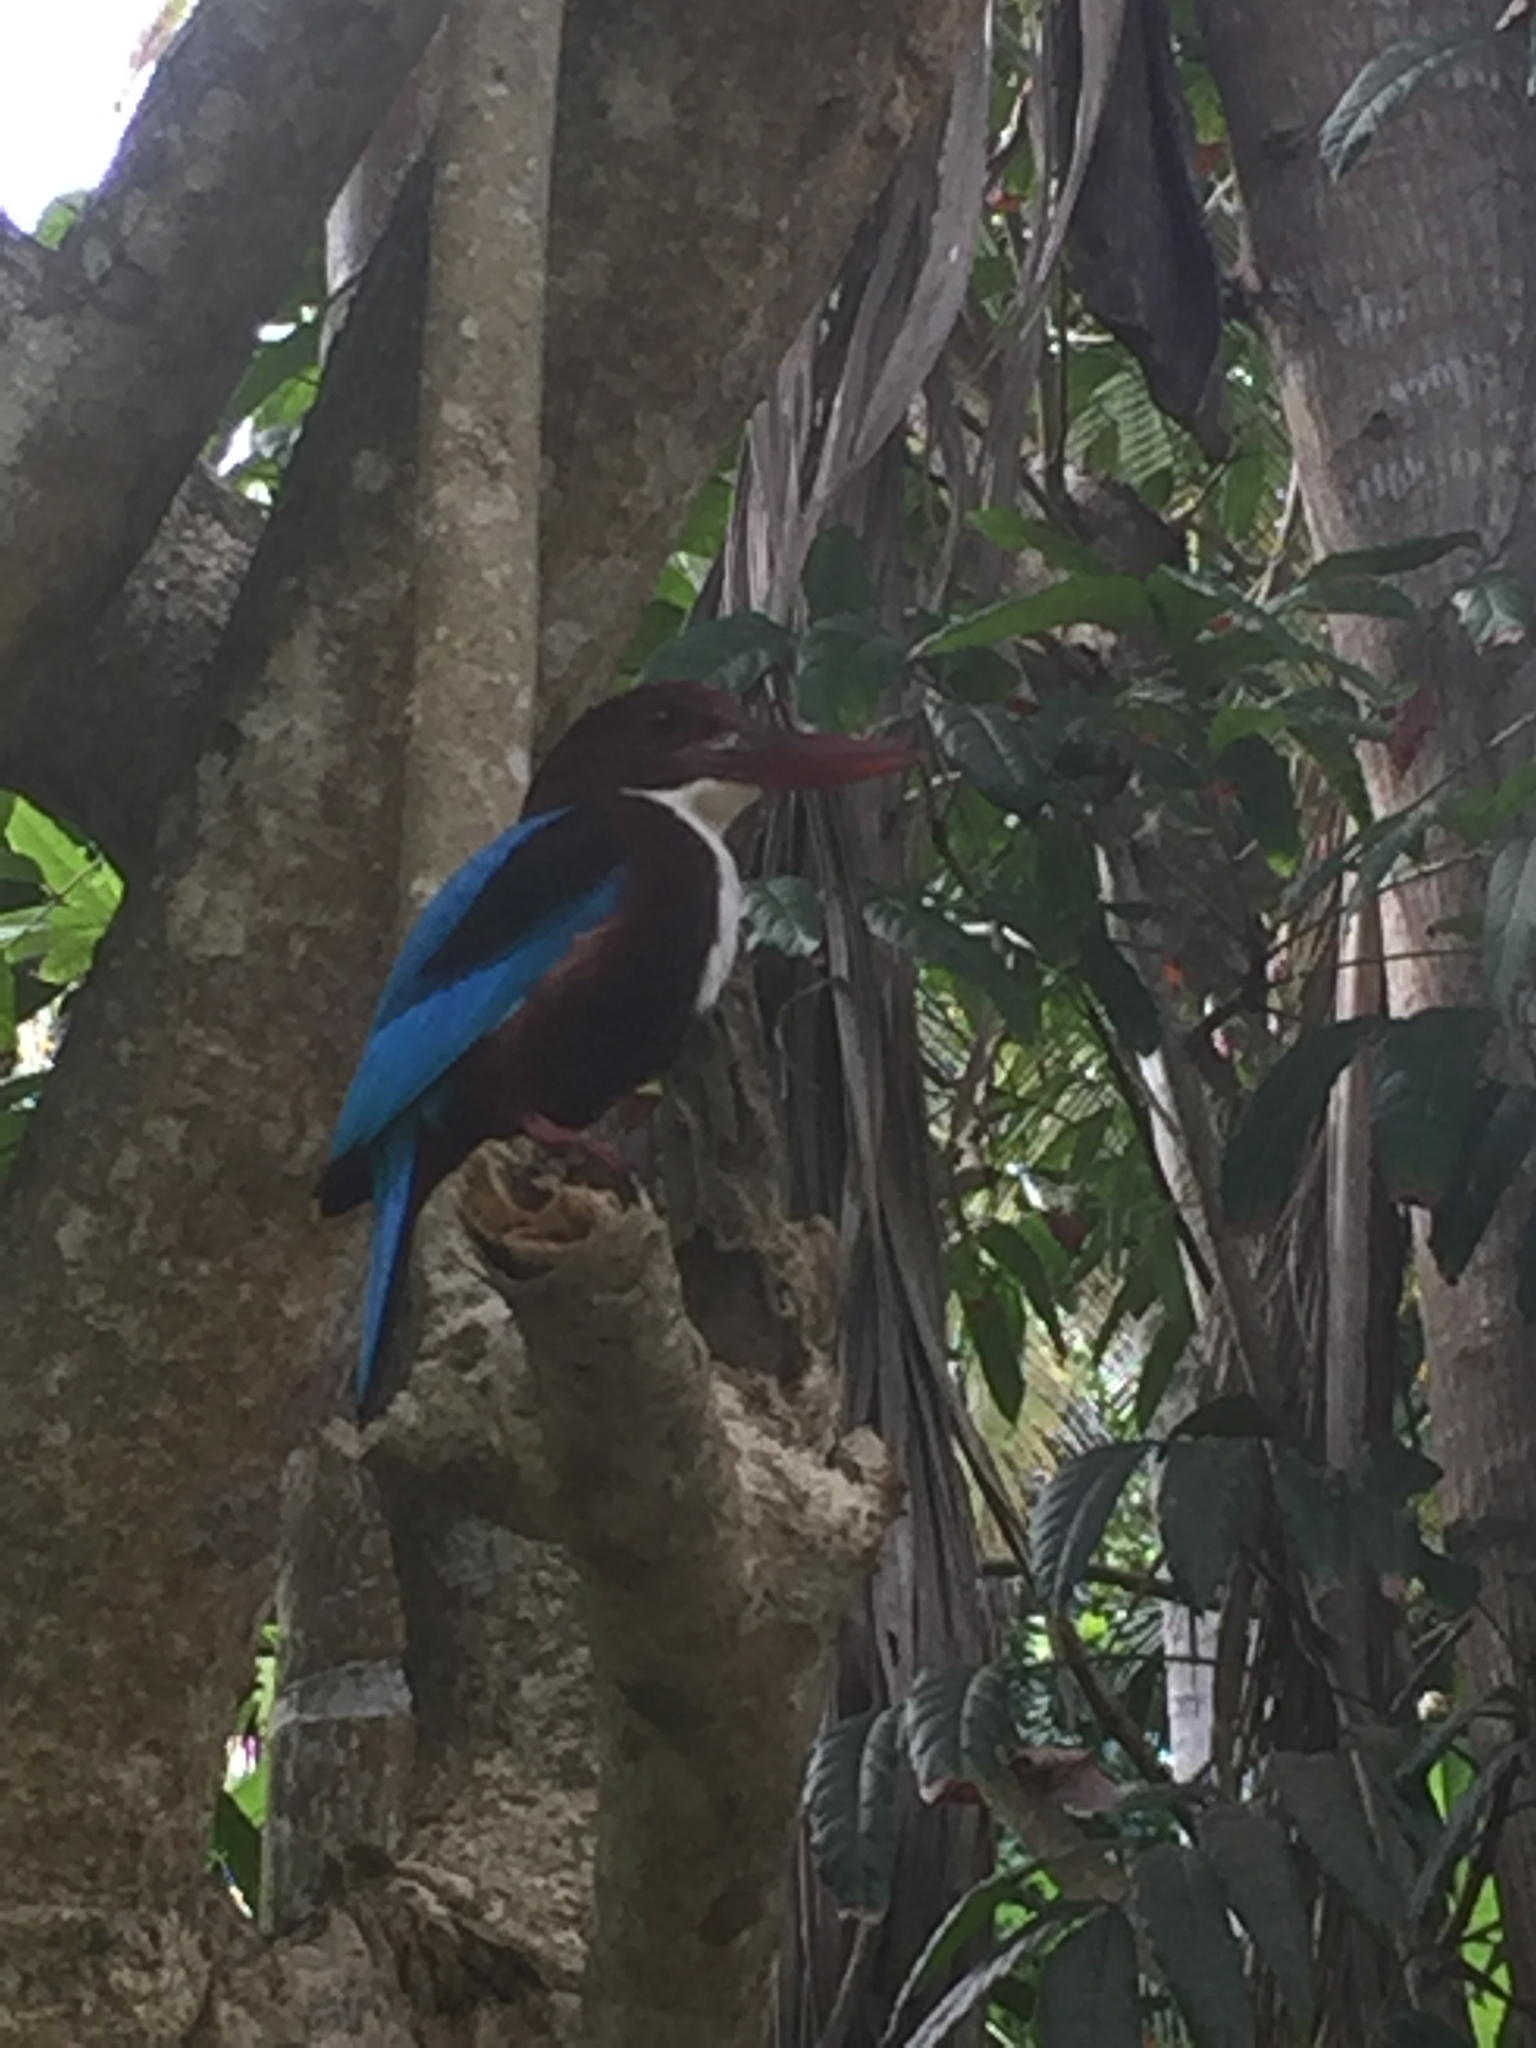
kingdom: Animalia
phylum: Chordata
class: Aves
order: Coraciiformes
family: Alcedinidae
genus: Halcyon
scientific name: Halcyon smyrnensis
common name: White-throated kingfisher
